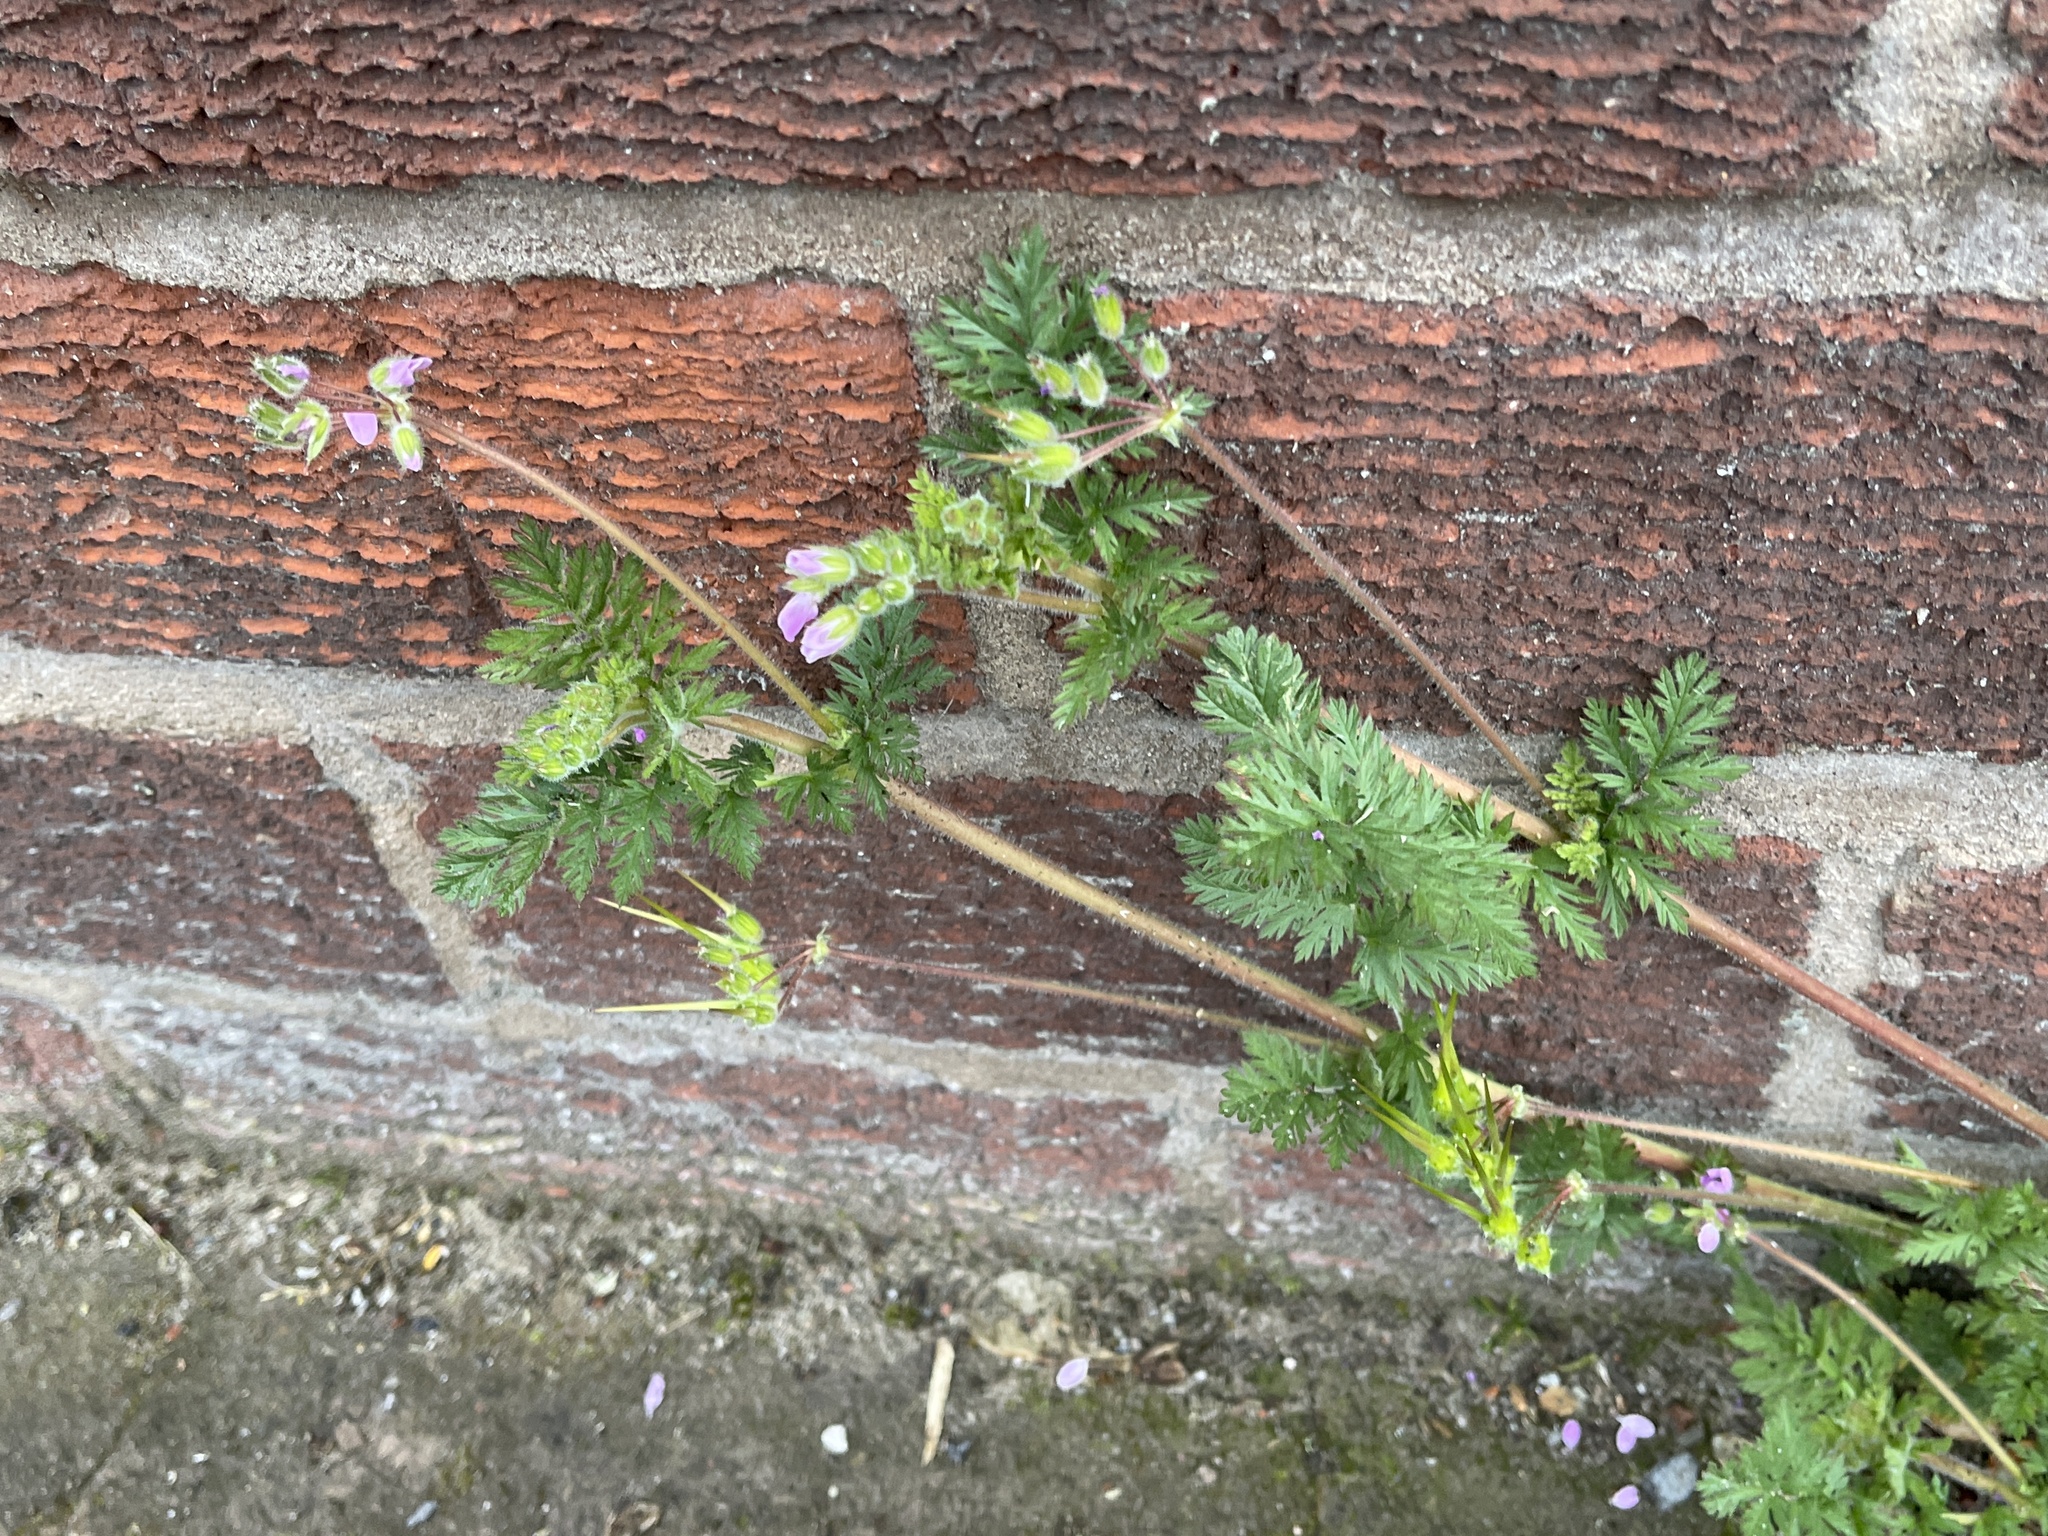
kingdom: Plantae
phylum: Tracheophyta
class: Magnoliopsida
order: Geraniales
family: Geraniaceae
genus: Erodium
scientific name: Erodium cicutarium
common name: Common stork's-bill
